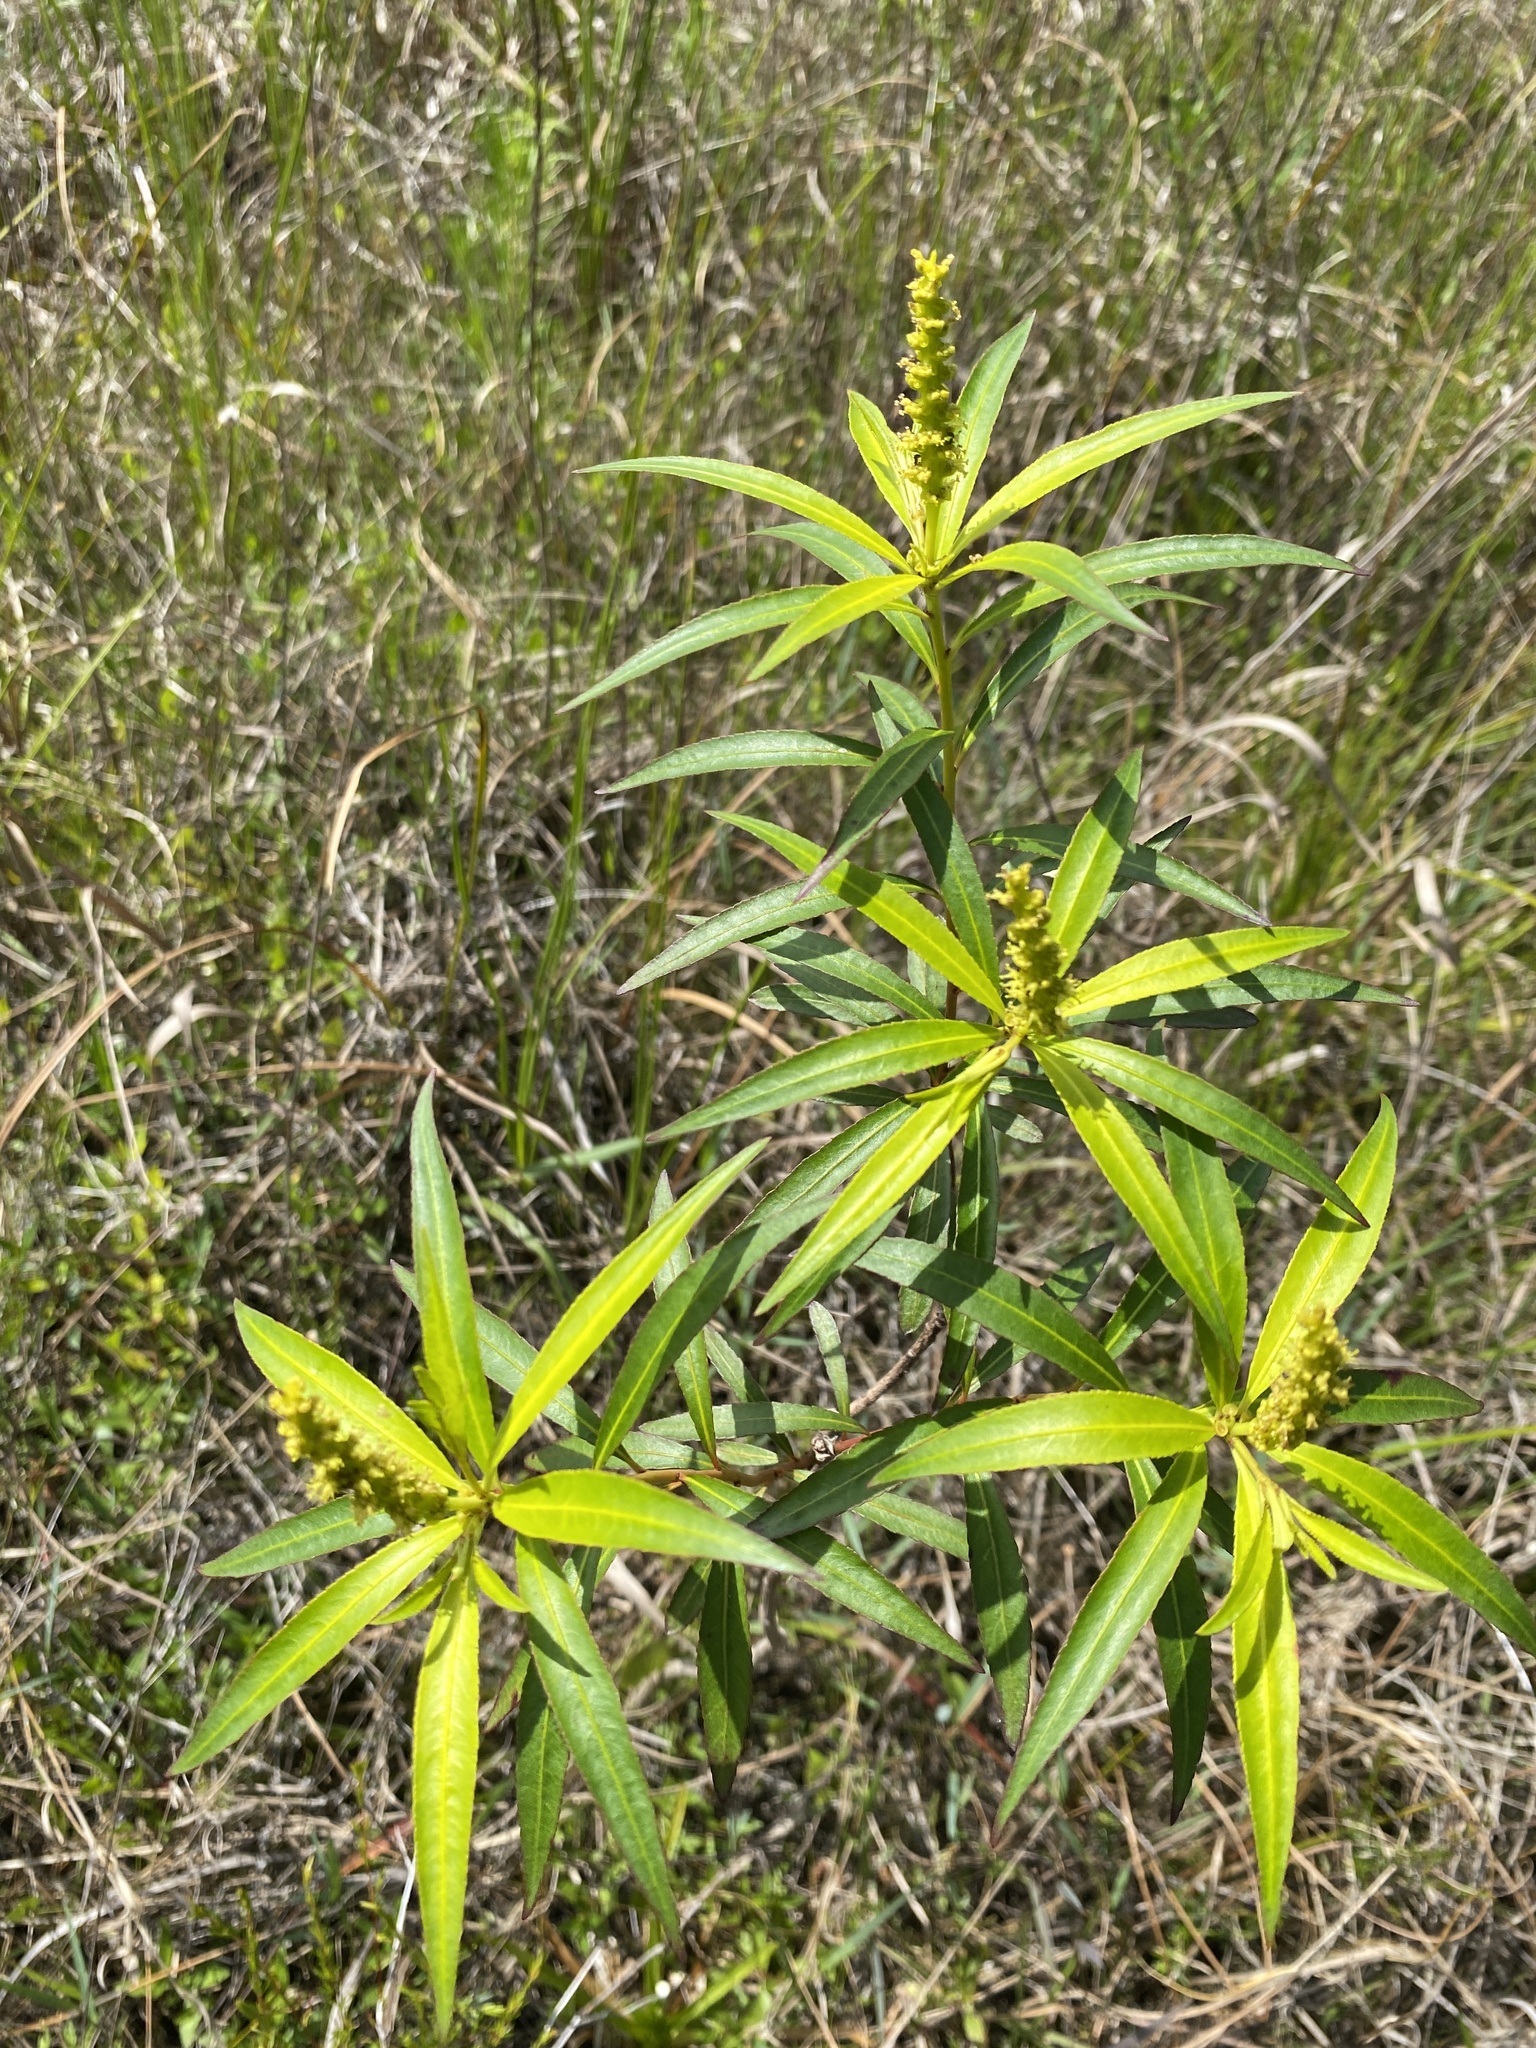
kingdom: Plantae
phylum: Tracheophyta
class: Magnoliopsida
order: Malpighiales
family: Euphorbiaceae
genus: Stillingia
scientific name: Stillingia aquatica
